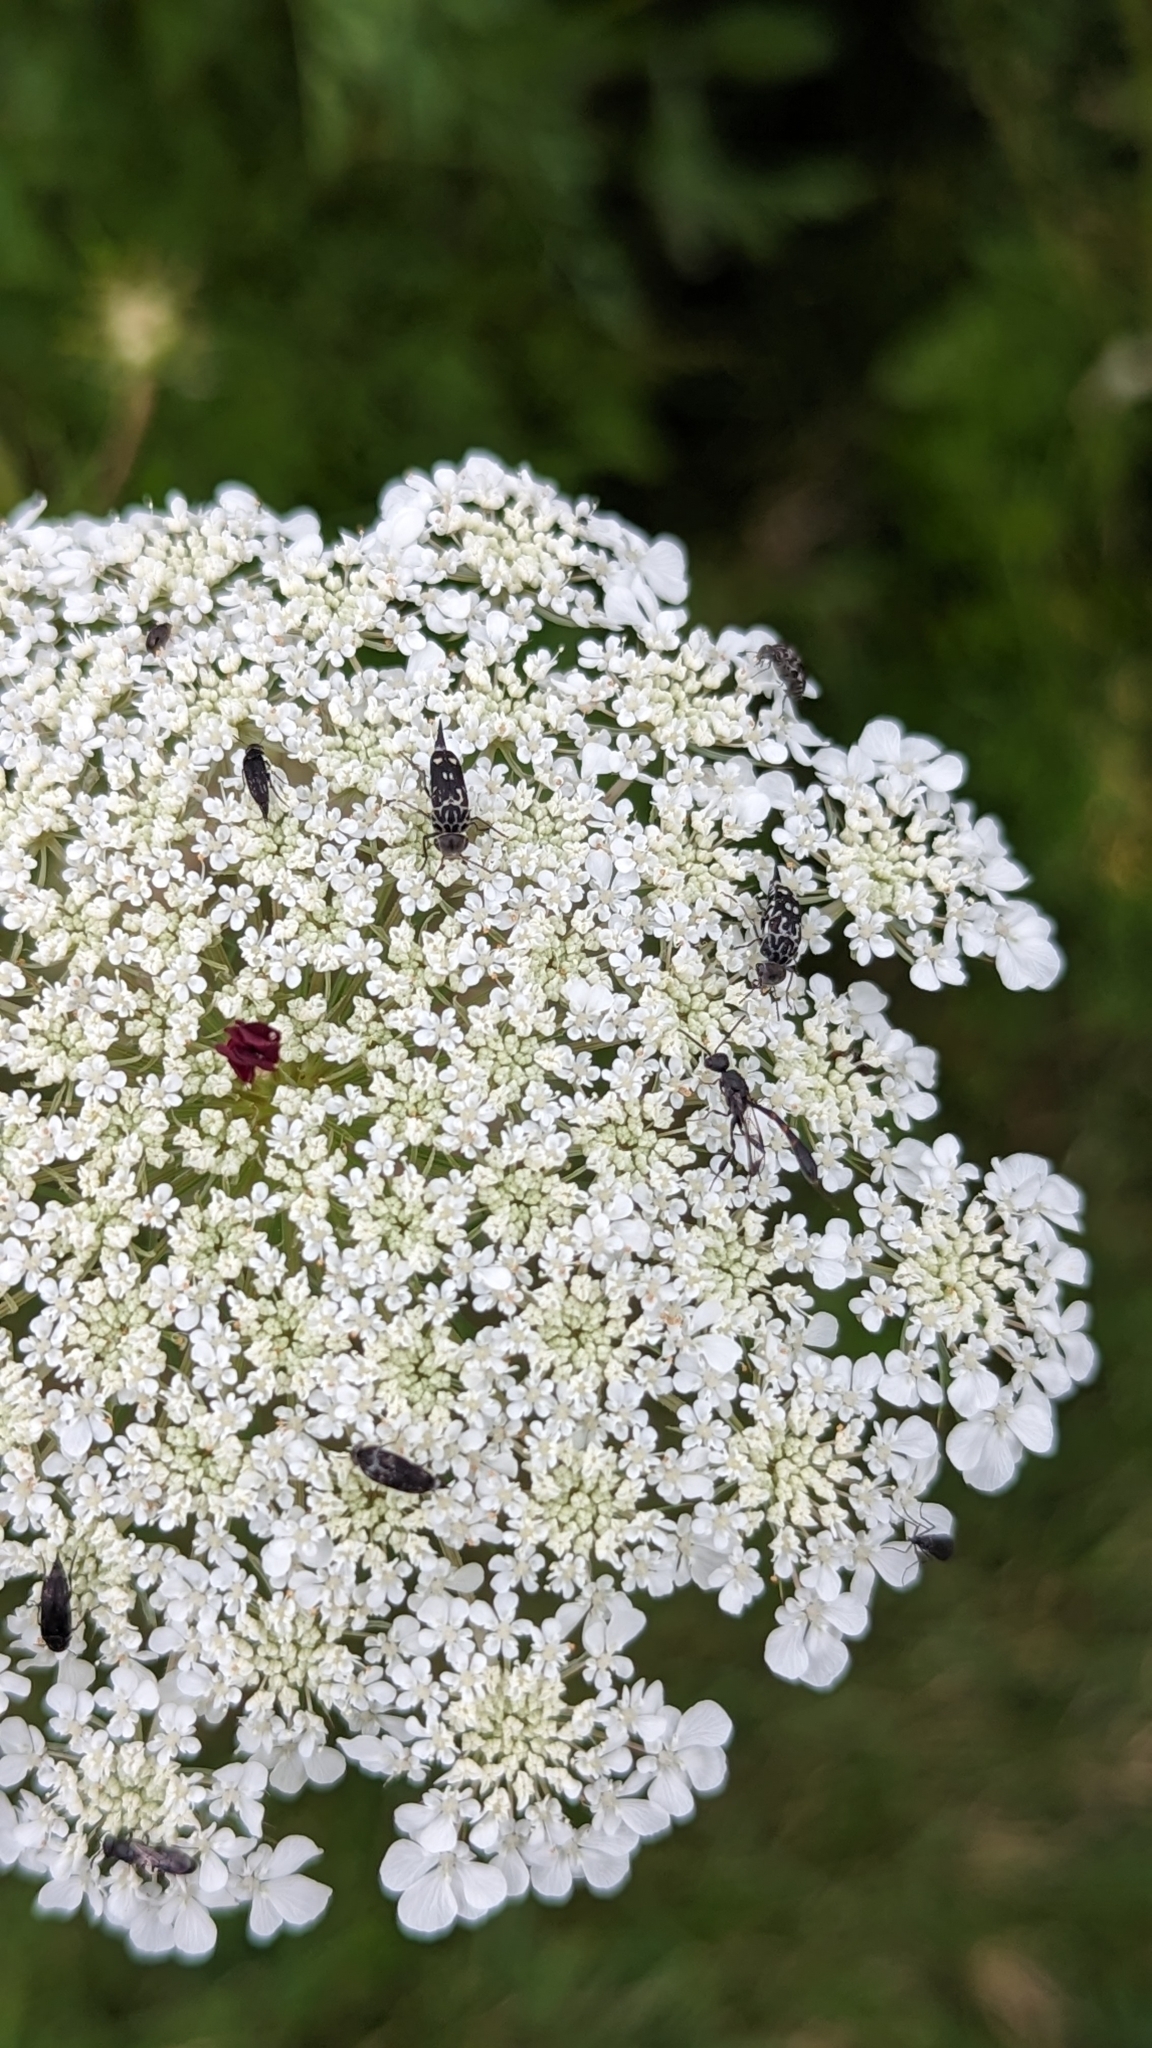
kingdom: Animalia
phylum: Arthropoda
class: Insecta
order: Coleoptera
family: Mordellidae
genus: Hoshihananomia
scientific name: Hoshihananomia octopunctata
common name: Eight-spotted tumbling flower beetle
